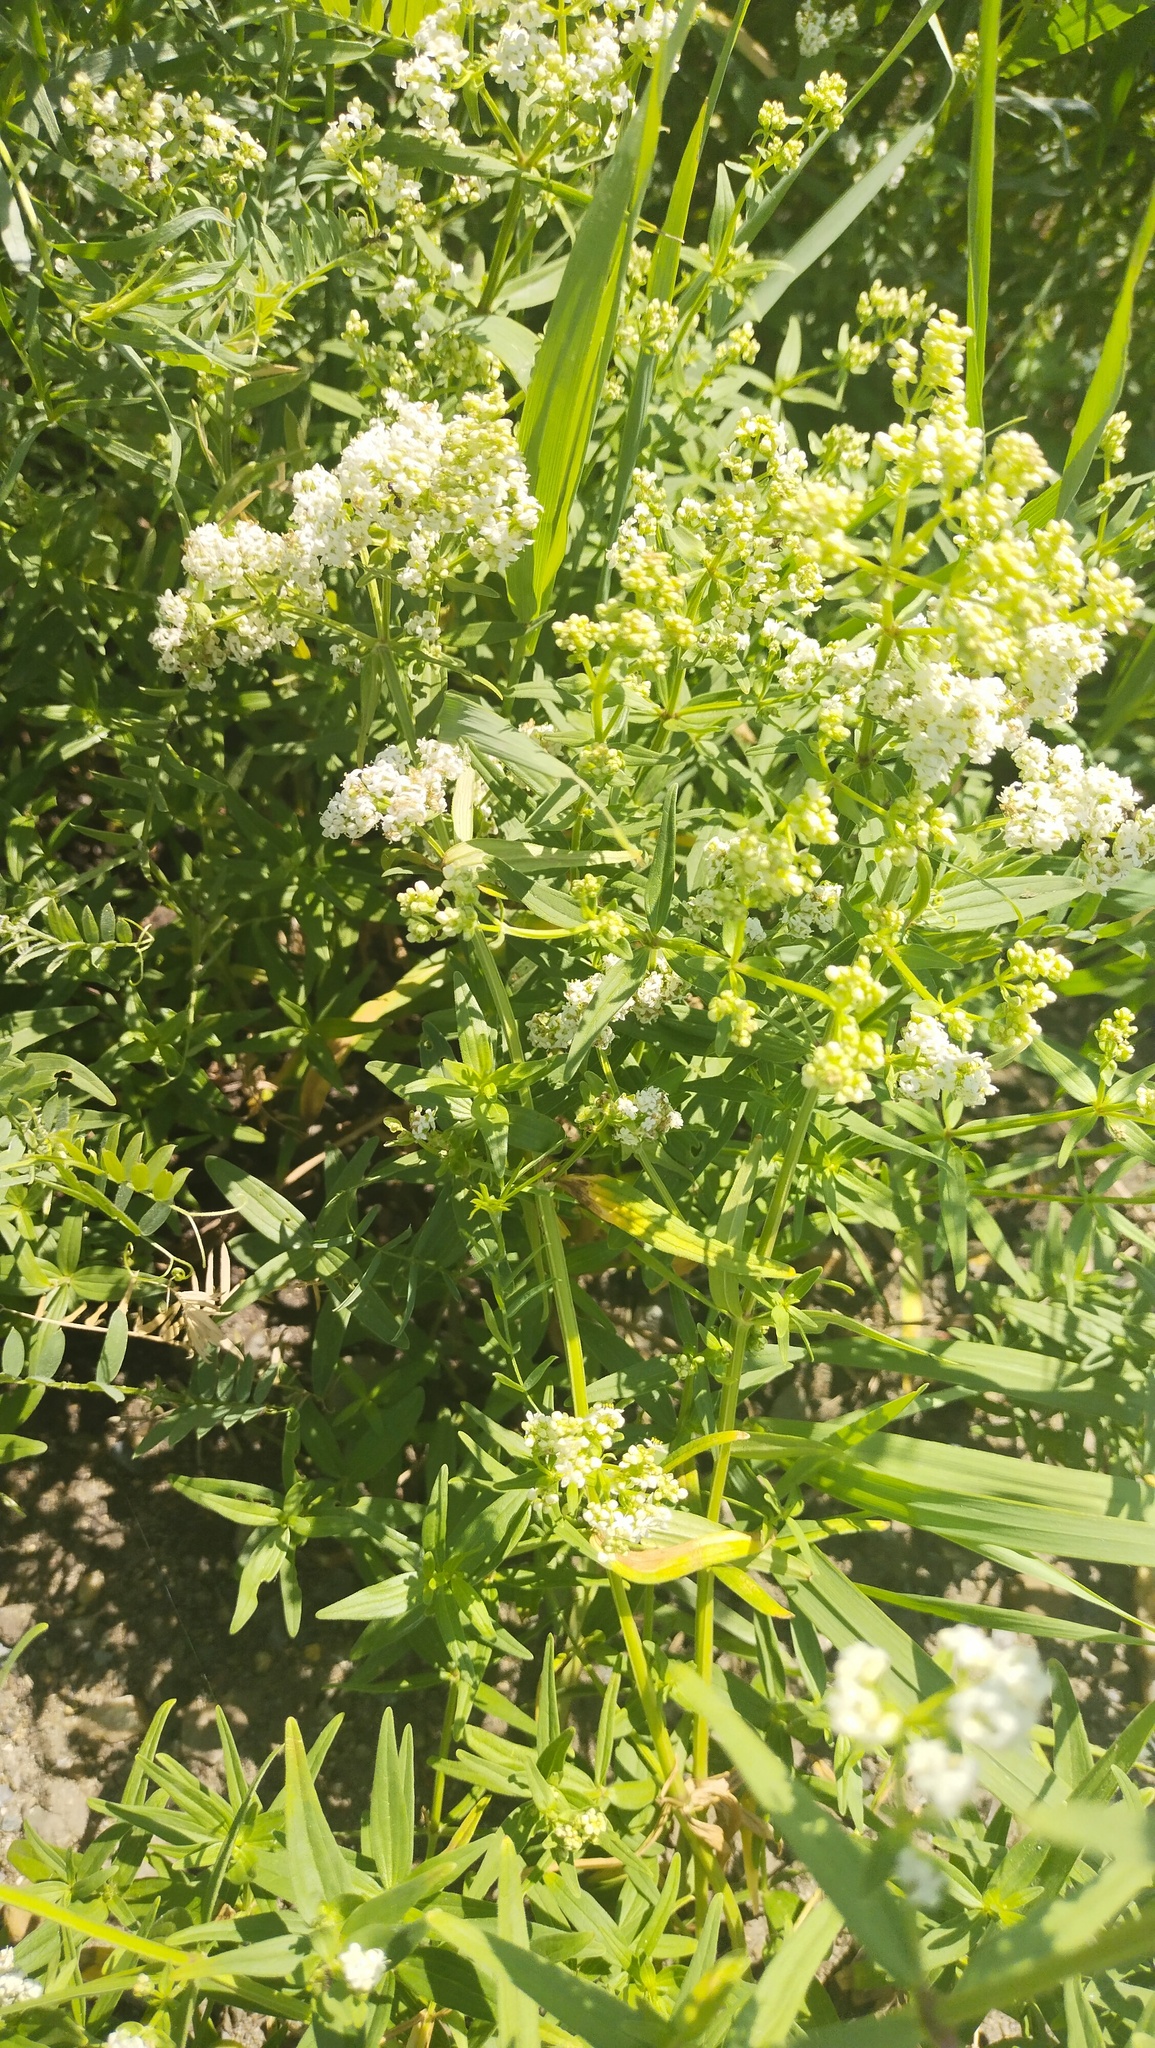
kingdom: Plantae
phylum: Tracheophyta
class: Magnoliopsida
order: Gentianales
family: Rubiaceae
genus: Galium
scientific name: Galium boreale
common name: Northern bedstraw
